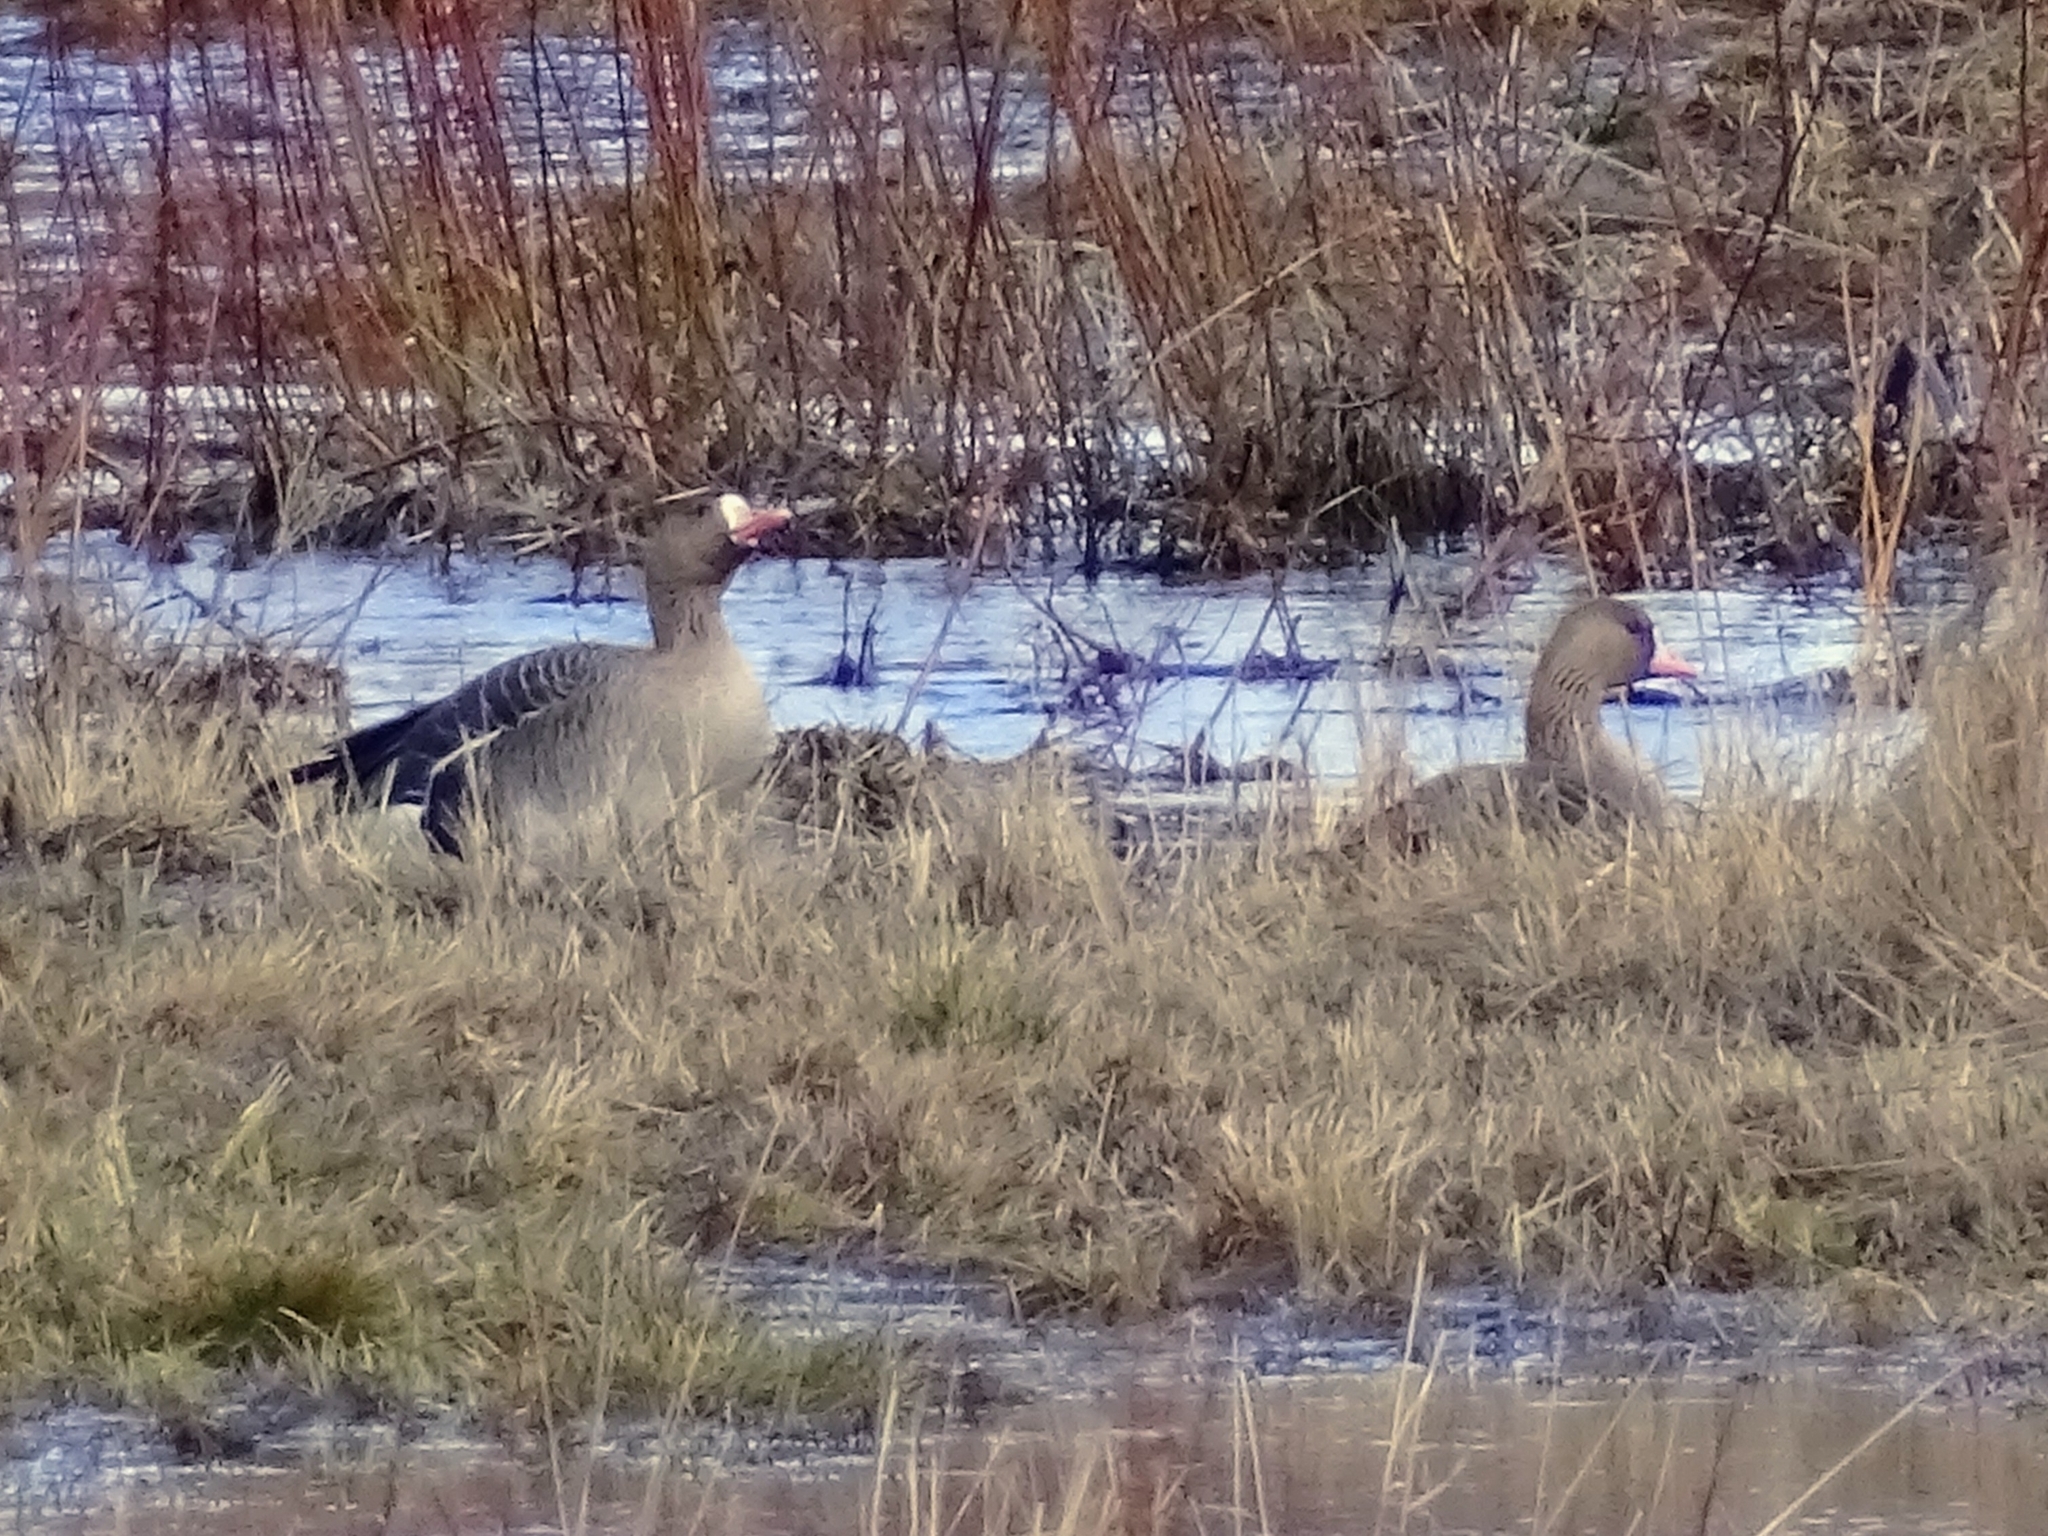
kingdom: Animalia
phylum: Chordata
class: Aves
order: Anseriformes
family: Anatidae
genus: Anser
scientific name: Anser albifrons
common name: Greater white-fronted goose
